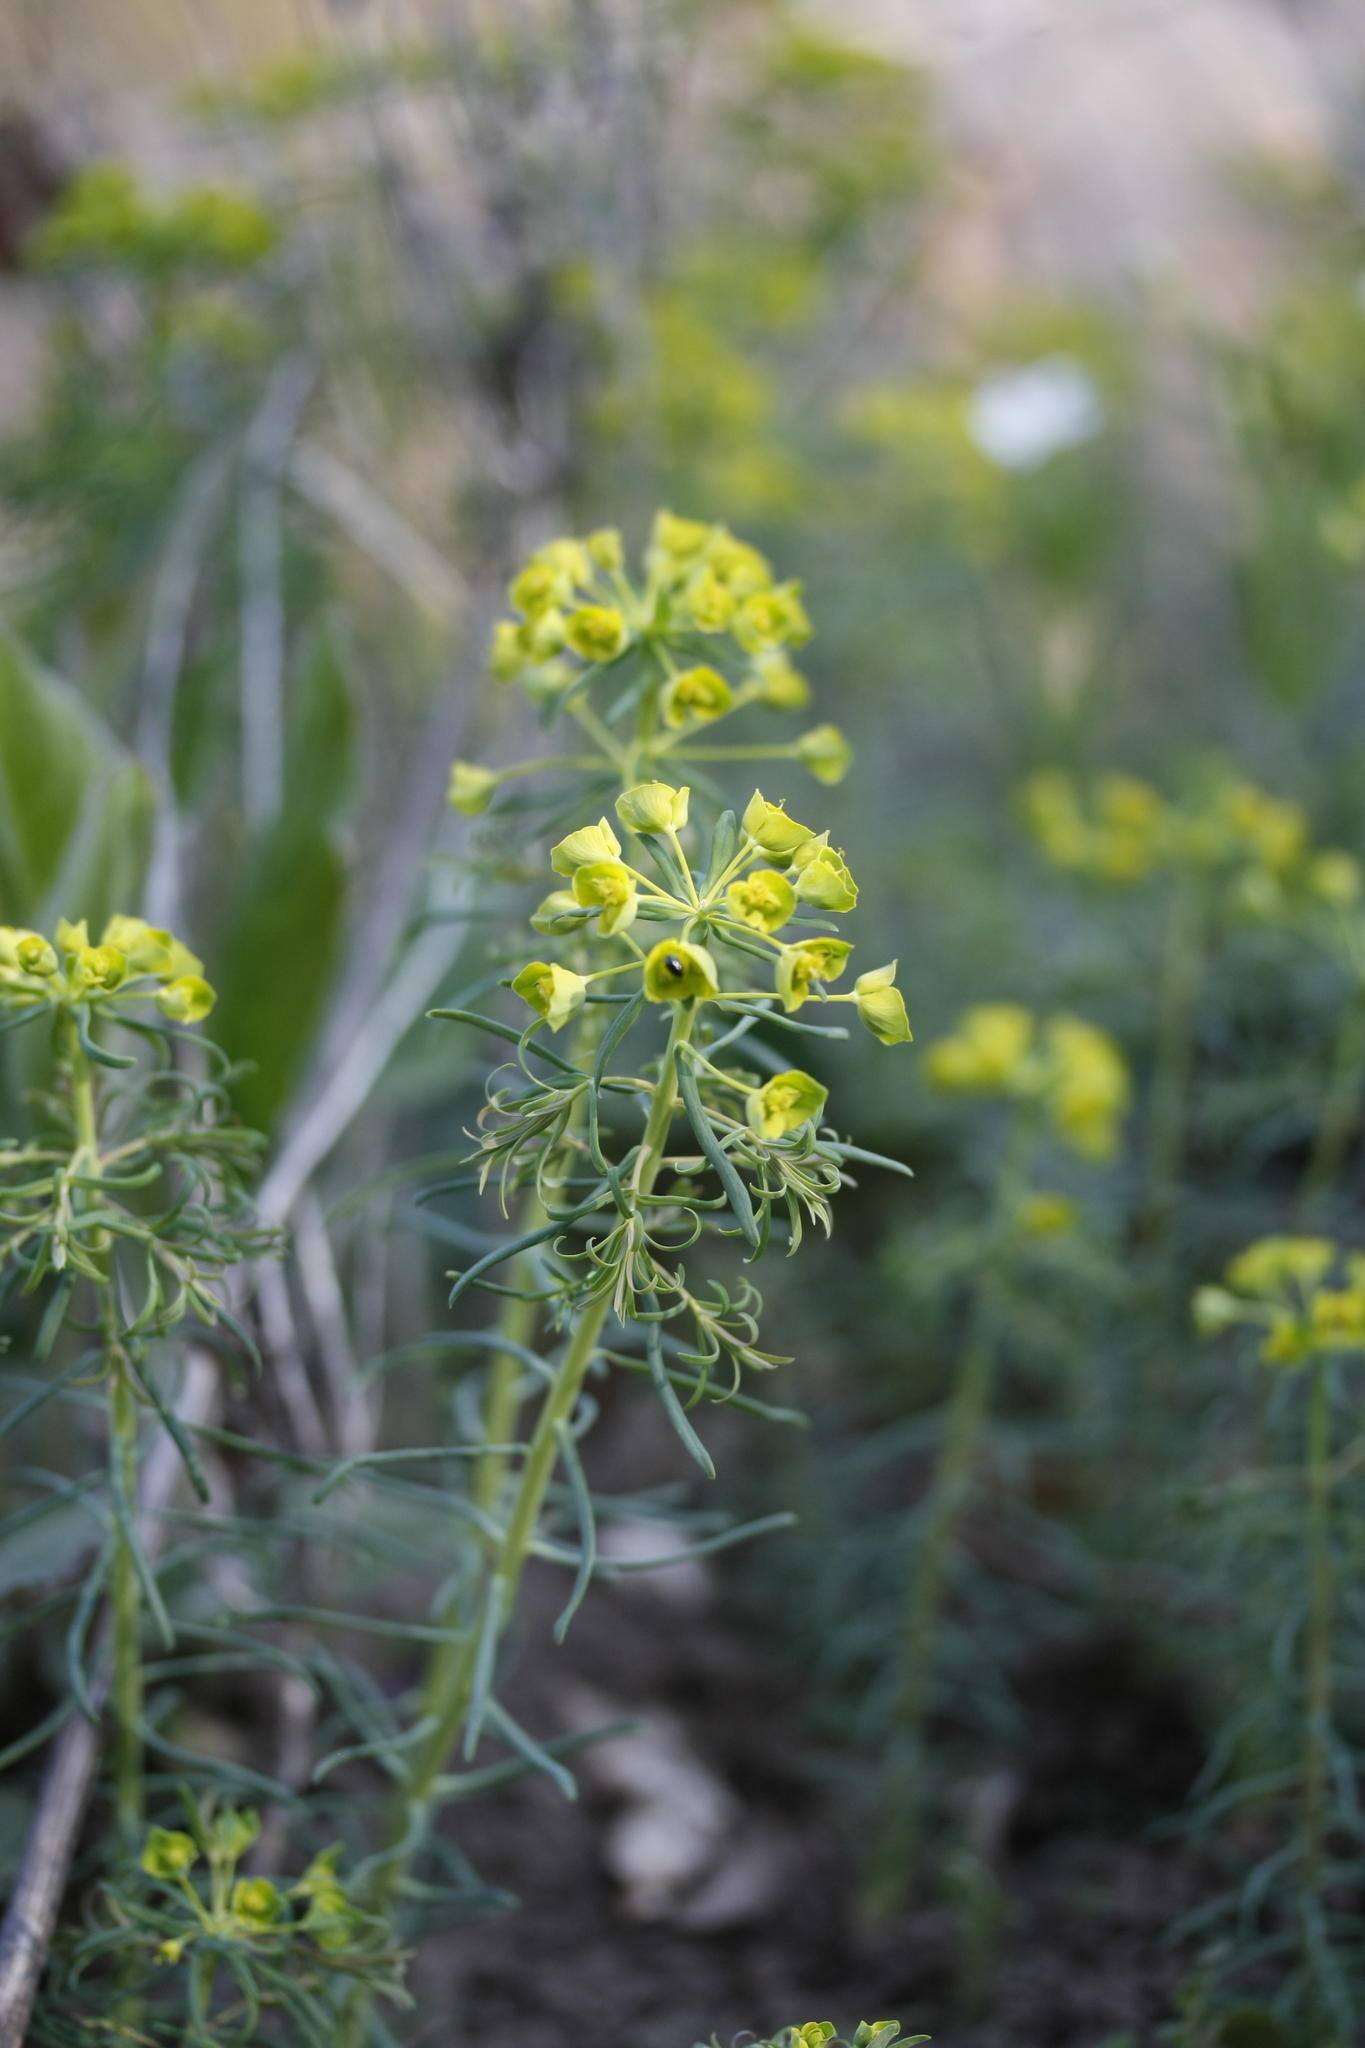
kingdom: Plantae
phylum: Tracheophyta
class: Magnoliopsida
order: Malpighiales
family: Euphorbiaceae
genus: Euphorbia
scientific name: Euphorbia cyparissias
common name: Cypress spurge
